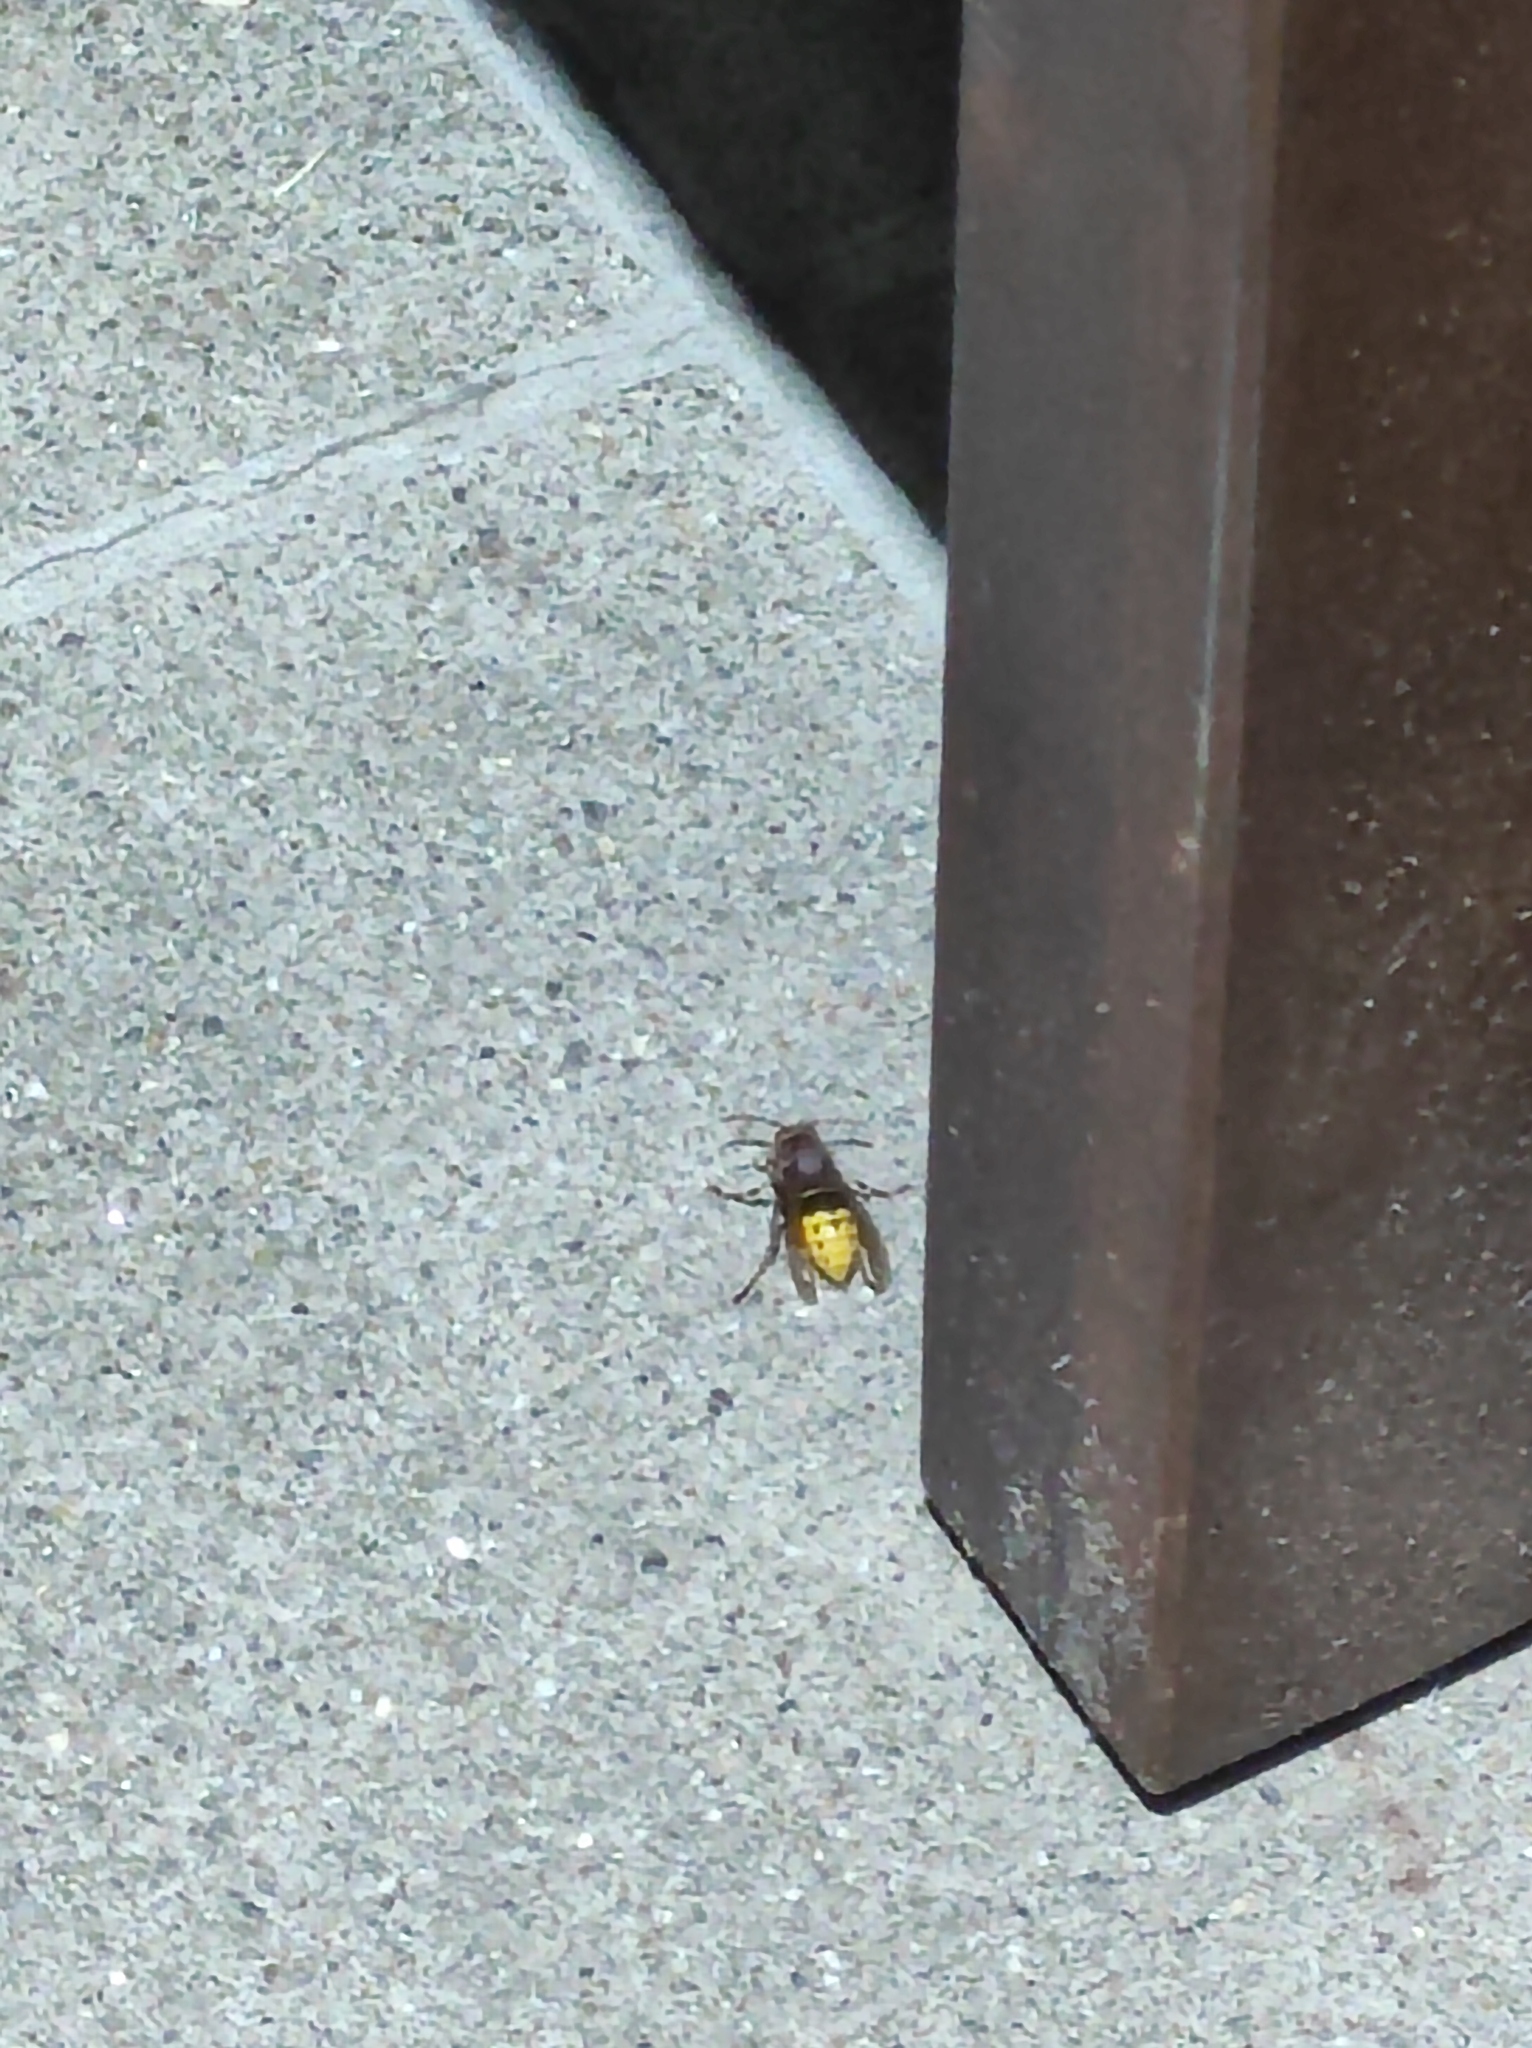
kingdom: Animalia
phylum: Arthropoda
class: Insecta
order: Hymenoptera
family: Vespidae
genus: Vespa
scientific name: Vespa crabro
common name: Hornet
